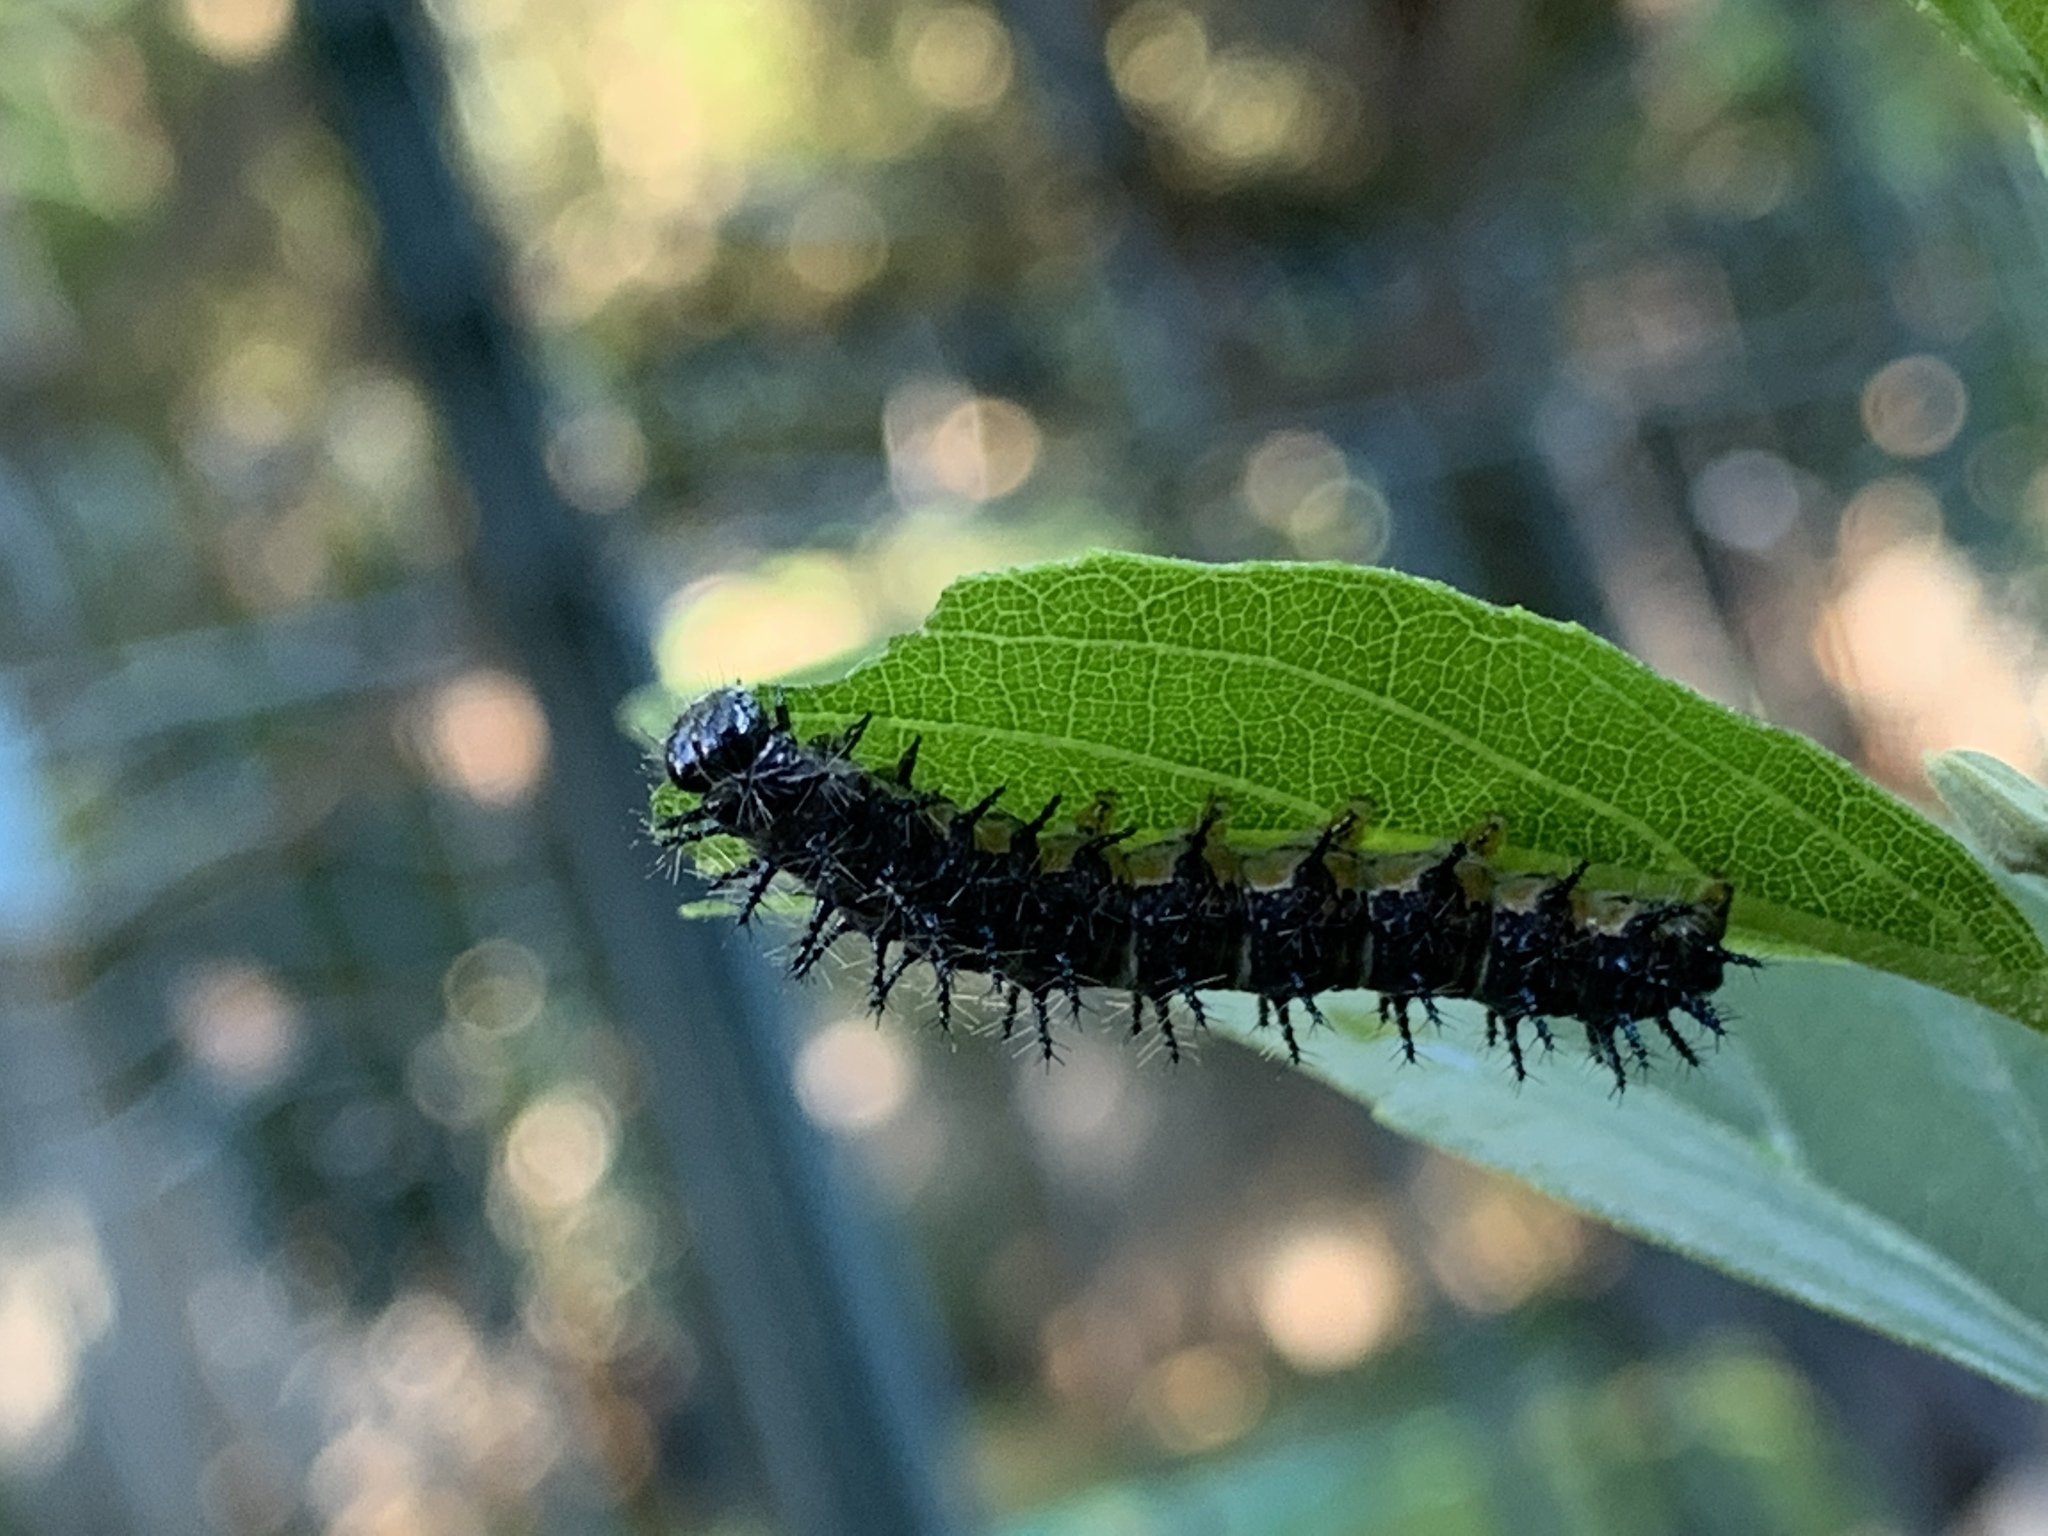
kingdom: Animalia
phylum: Arthropoda
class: Insecta
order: Lepidoptera
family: Nymphalidae
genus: Acraea
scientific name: Acraea horta
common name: Garden acraea
